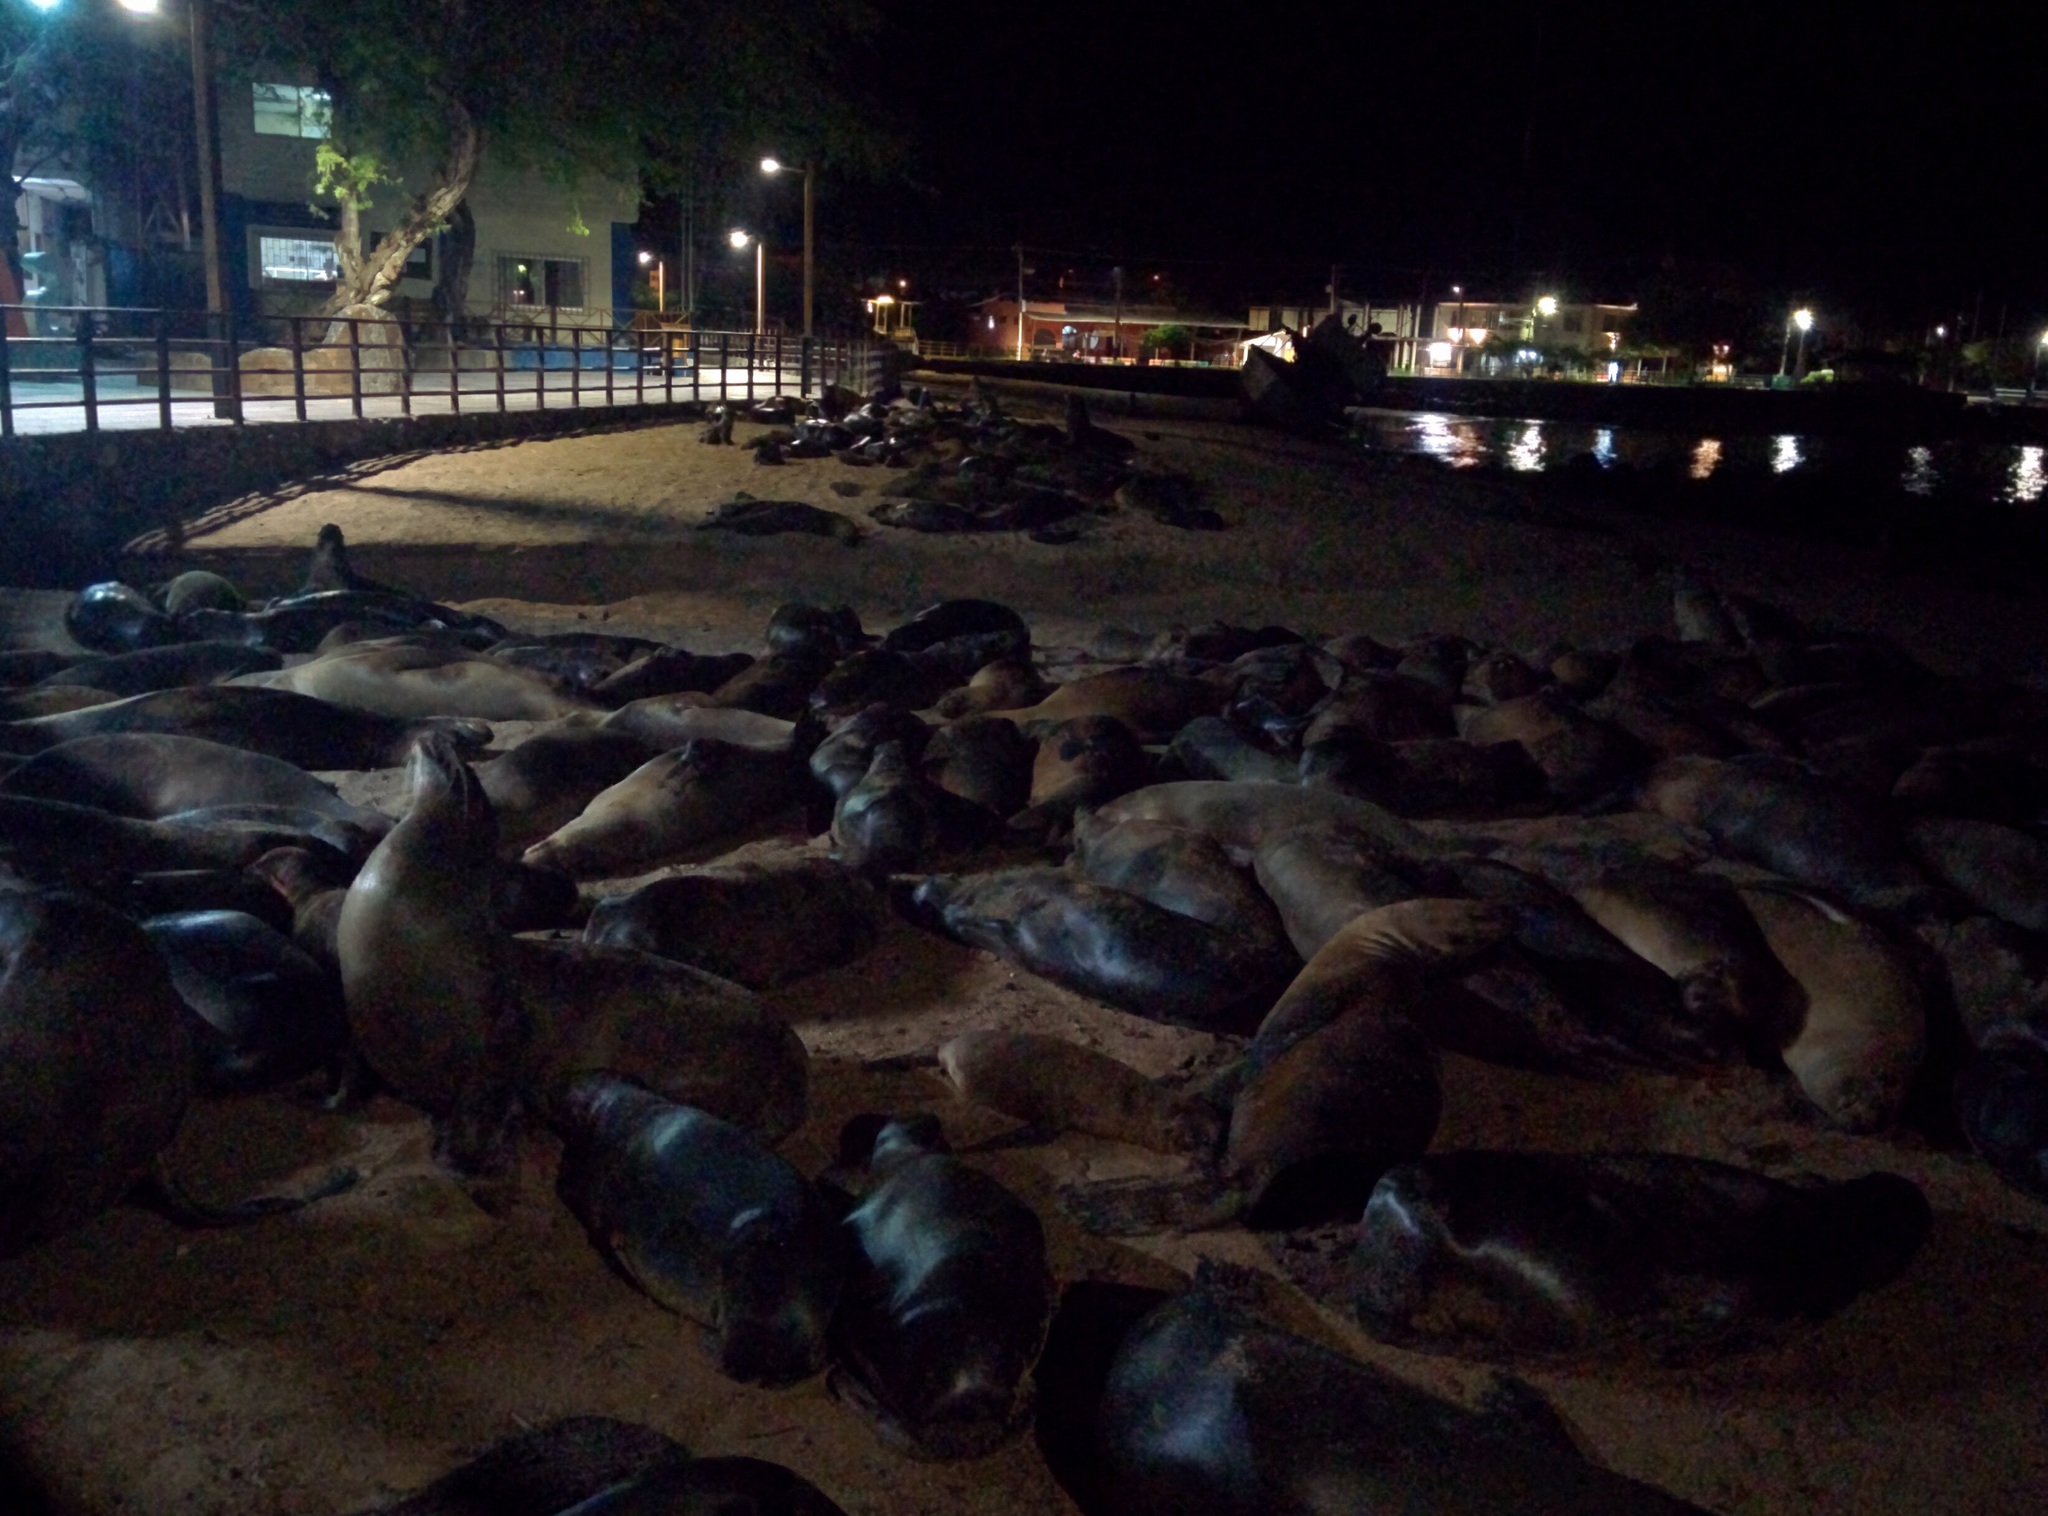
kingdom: Animalia
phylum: Chordata
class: Mammalia
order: Carnivora
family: Otariidae
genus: Zalophus
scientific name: Zalophus wollebaeki
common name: Galapagos sea lion
